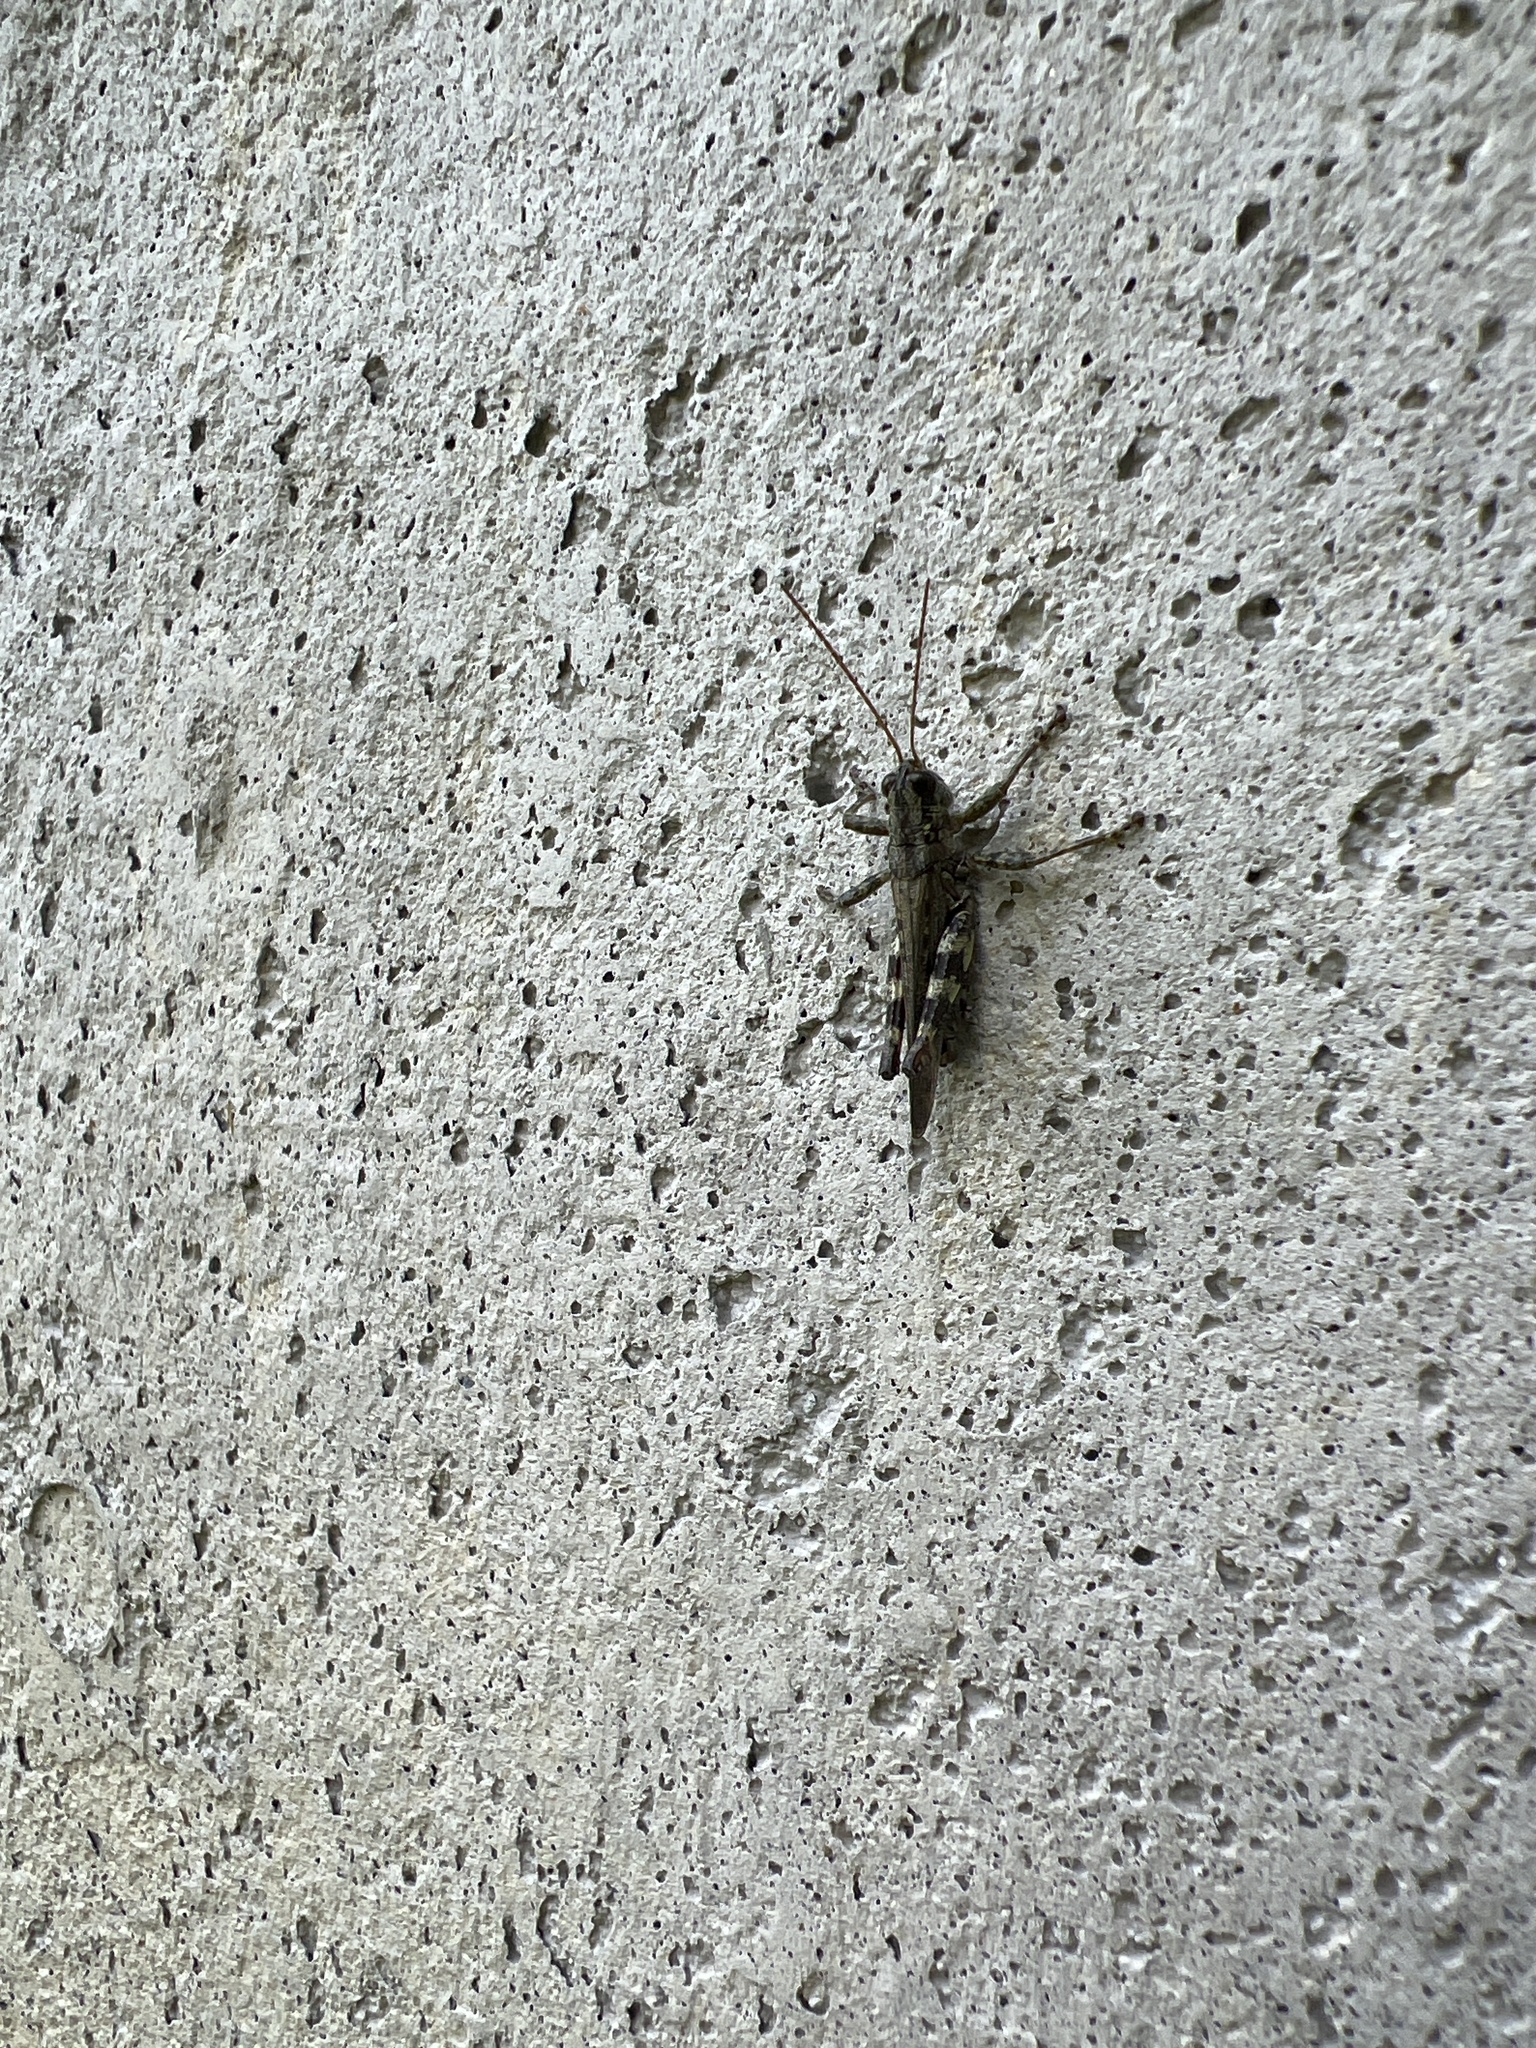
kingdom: Animalia
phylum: Arthropoda
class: Insecta
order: Orthoptera
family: Acrididae
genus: Melanoplus
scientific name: Melanoplus punctulatus
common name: Pine-tree spur-throat grasshopper
